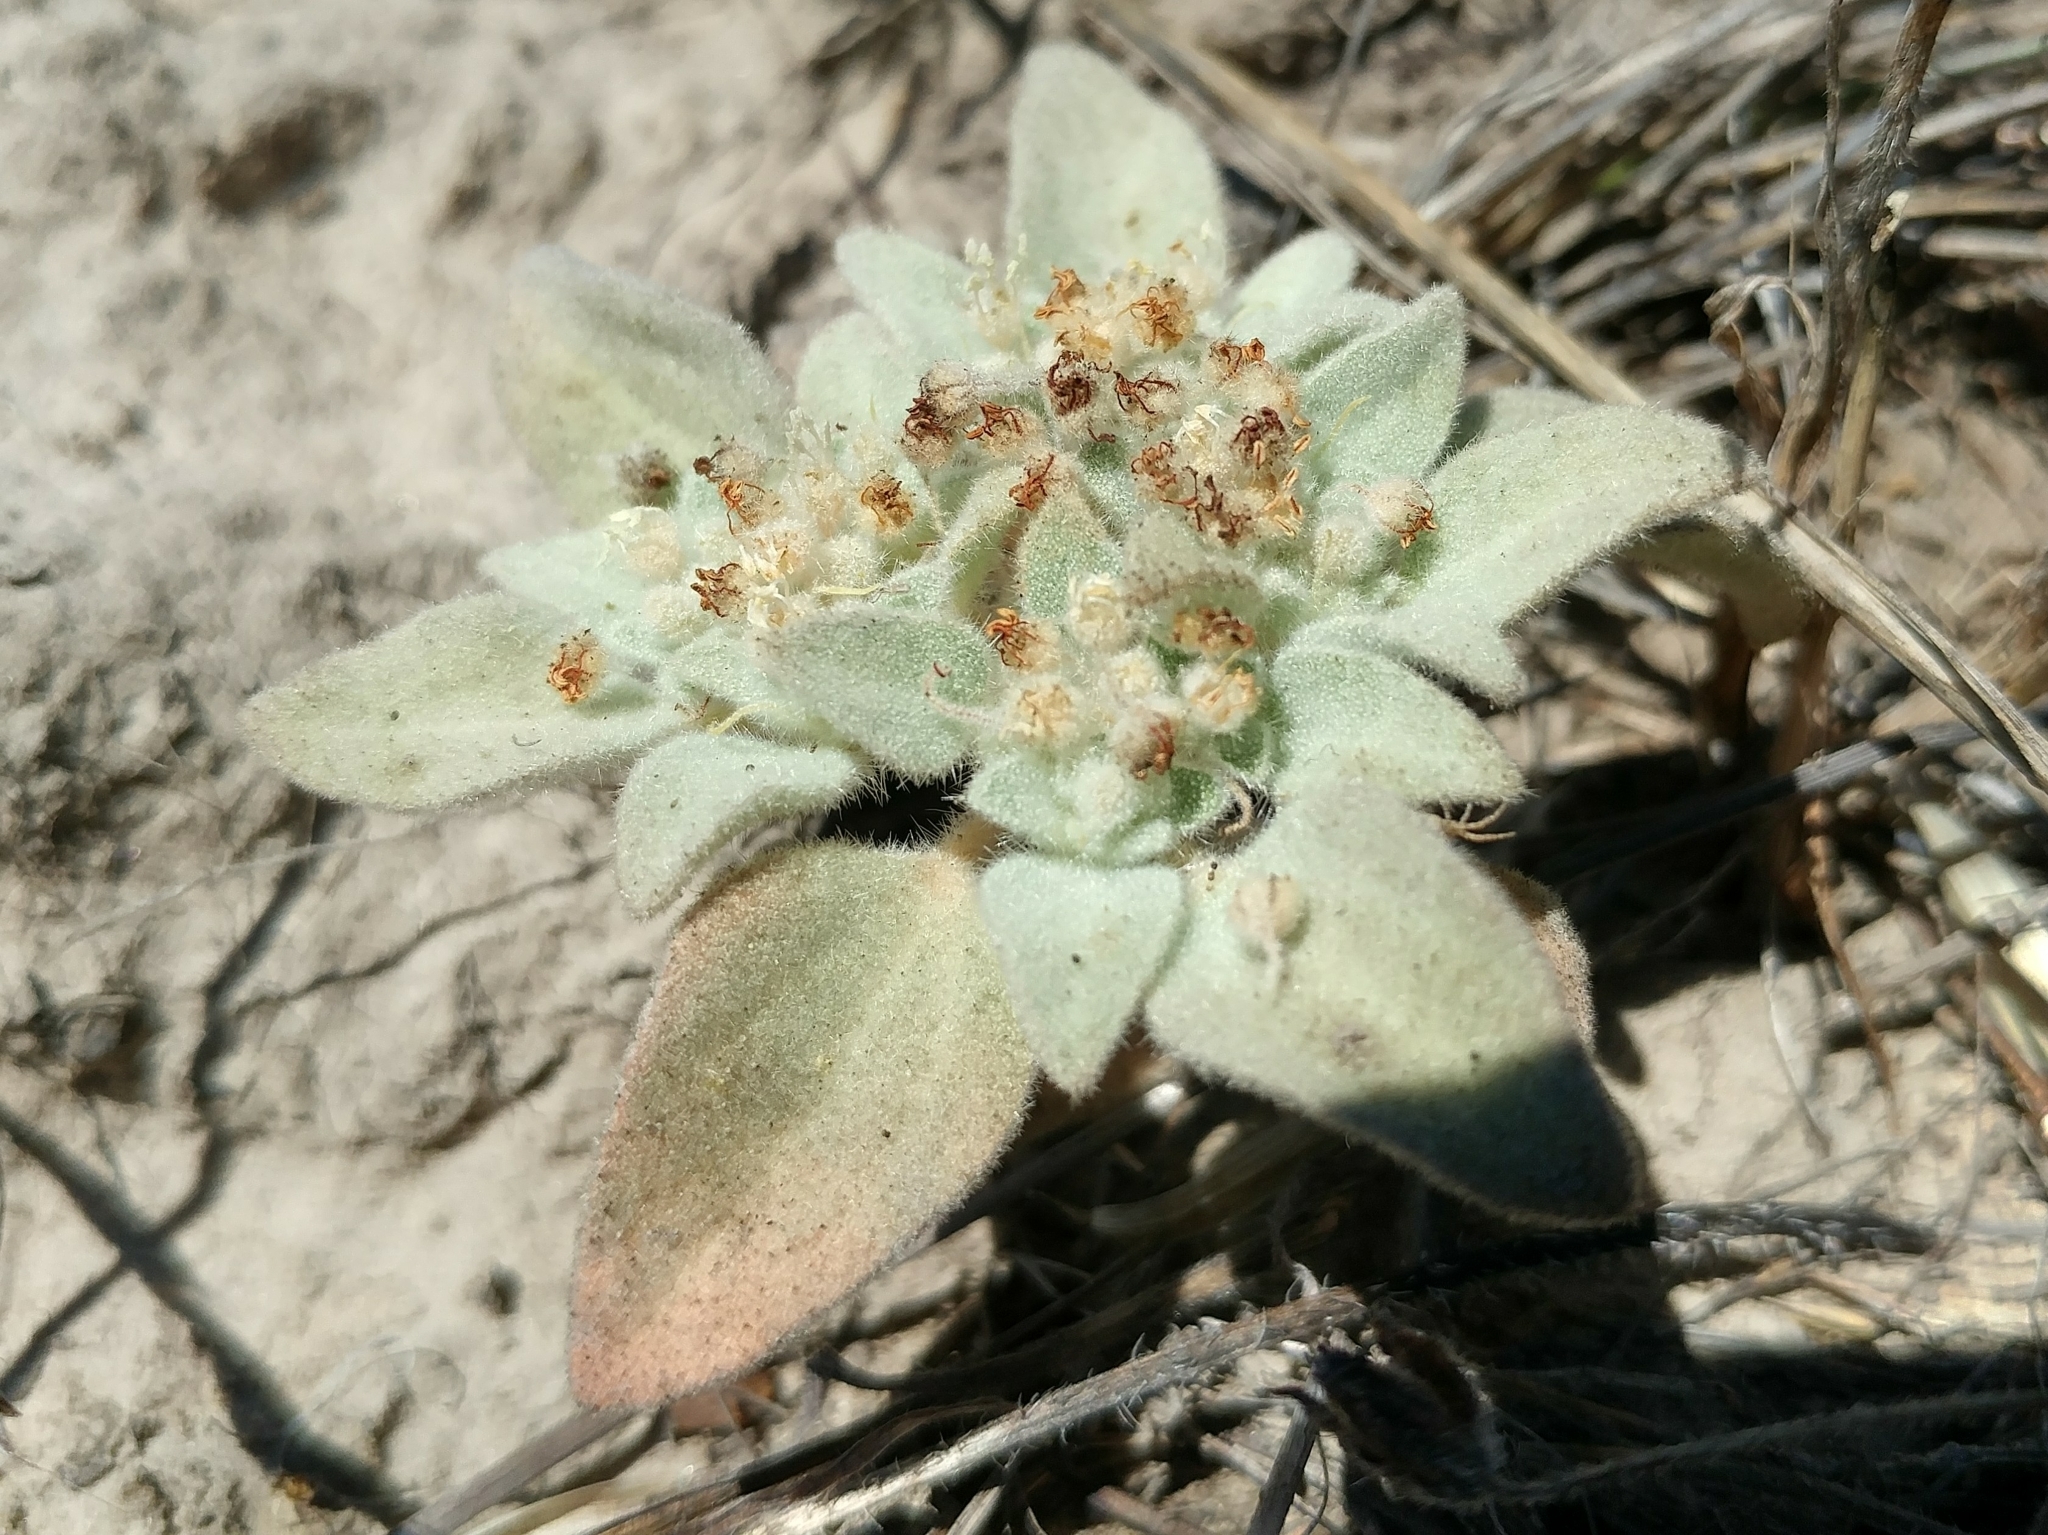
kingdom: Plantae
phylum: Tracheophyta
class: Magnoliopsida
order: Malpighiales
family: Euphorbiaceae
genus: Croton
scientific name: Croton setiger
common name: Dove weed
